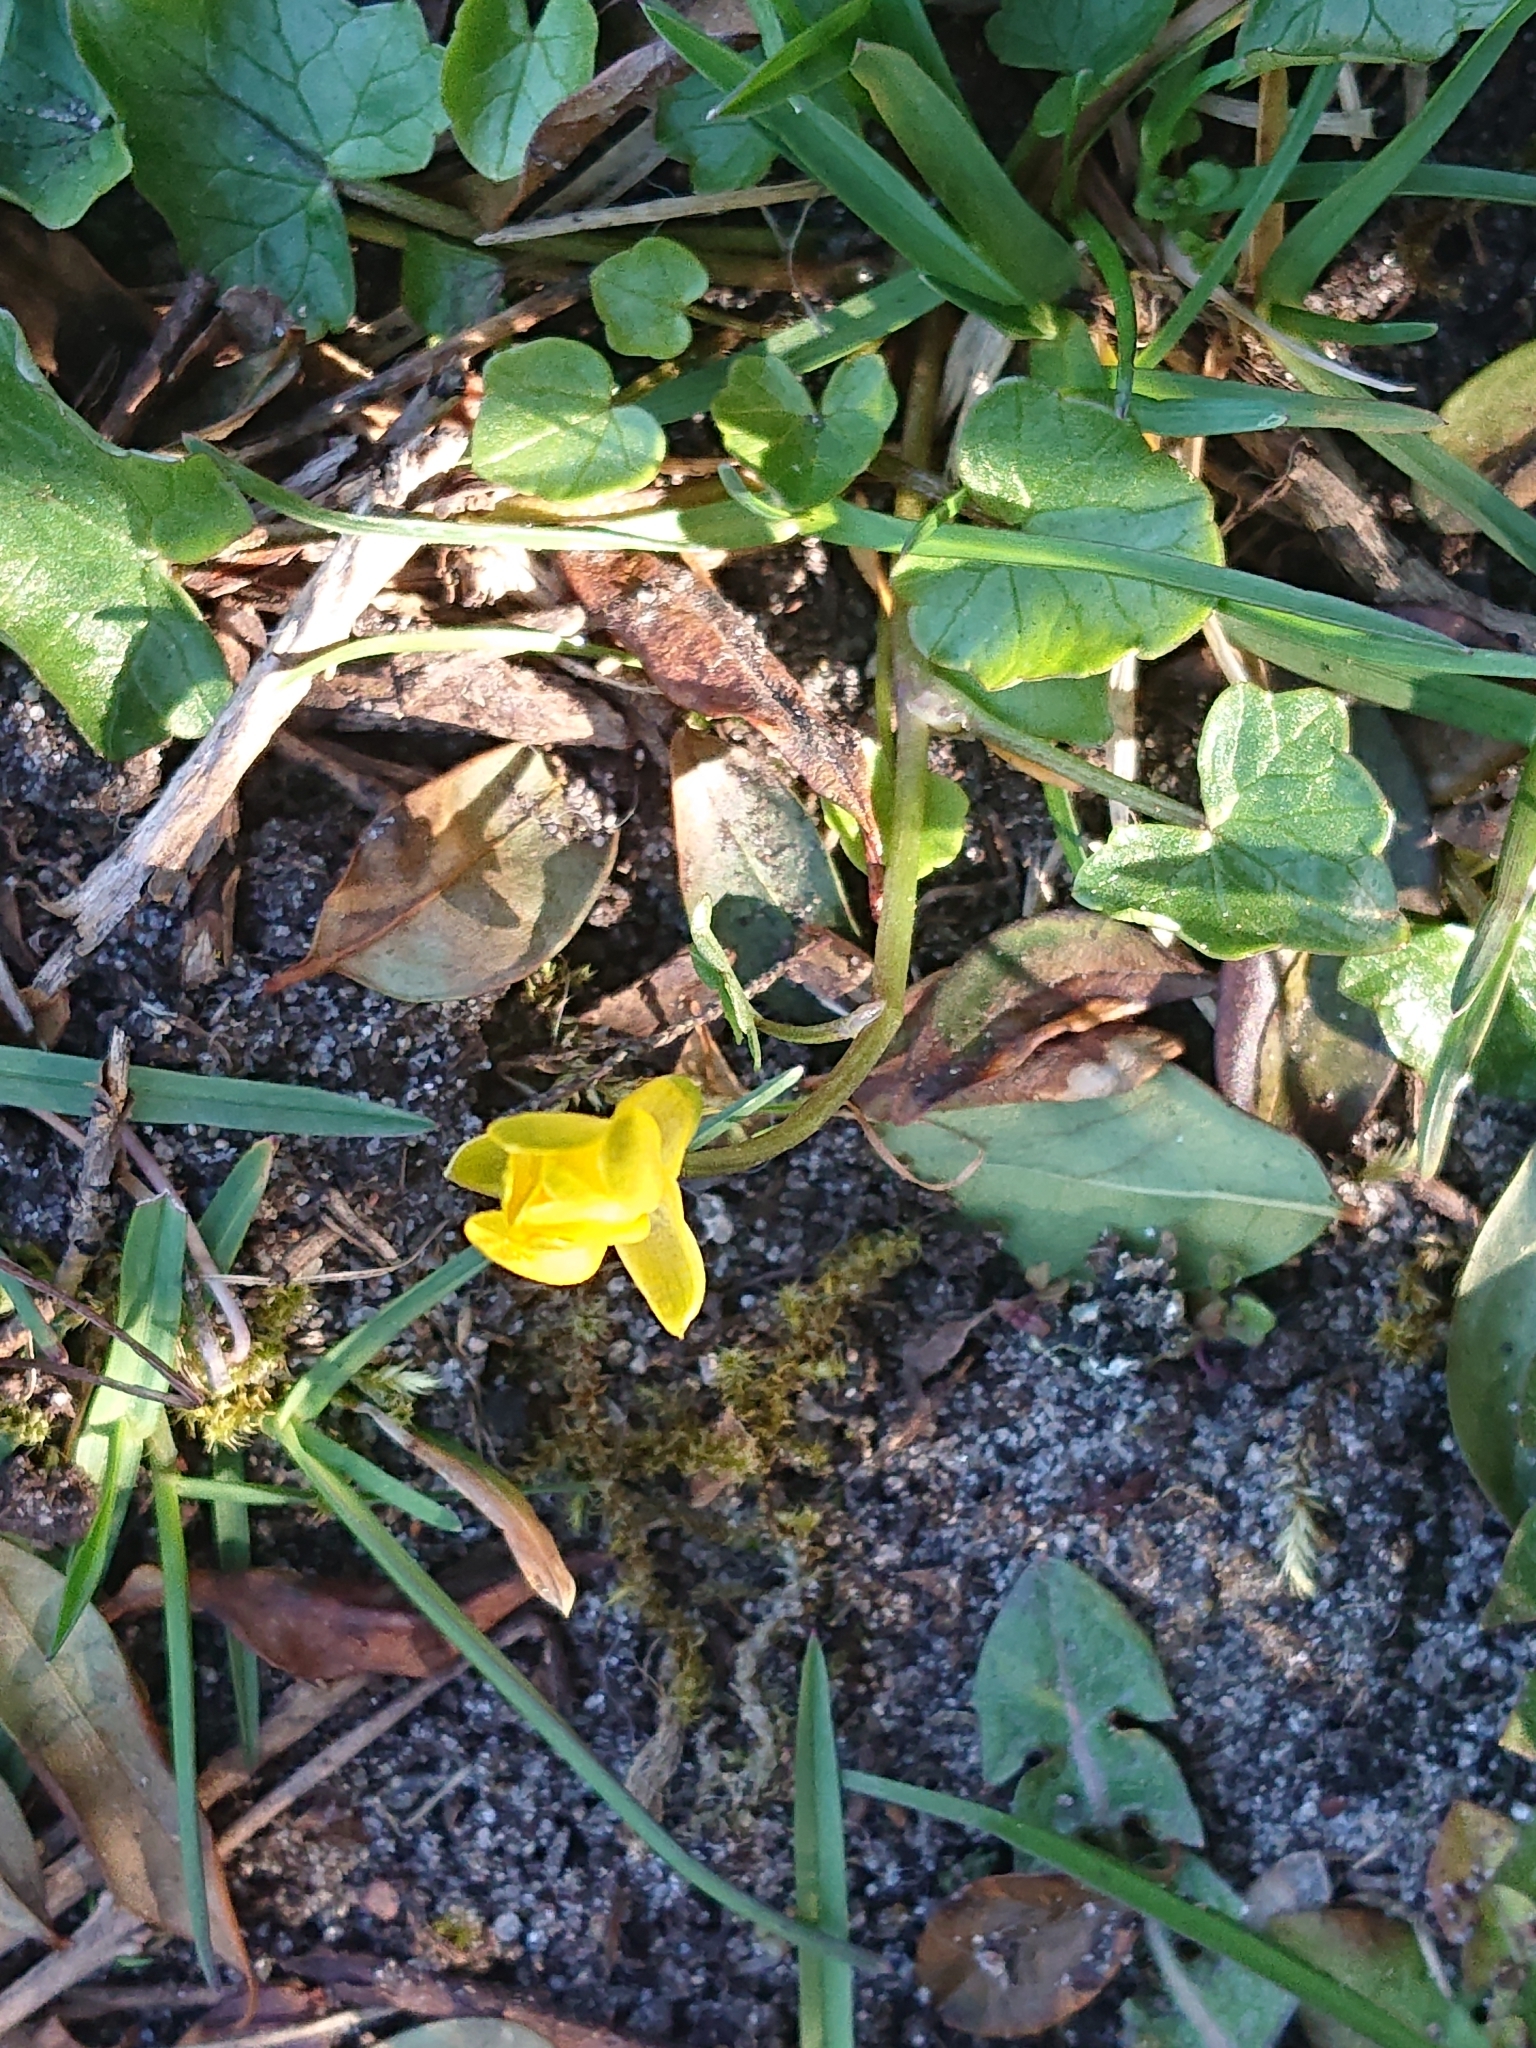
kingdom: Plantae
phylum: Tracheophyta
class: Magnoliopsida
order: Ranunculales
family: Ranunculaceae
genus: Ficaria
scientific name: Ficaria verna
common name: Lesser celandine
